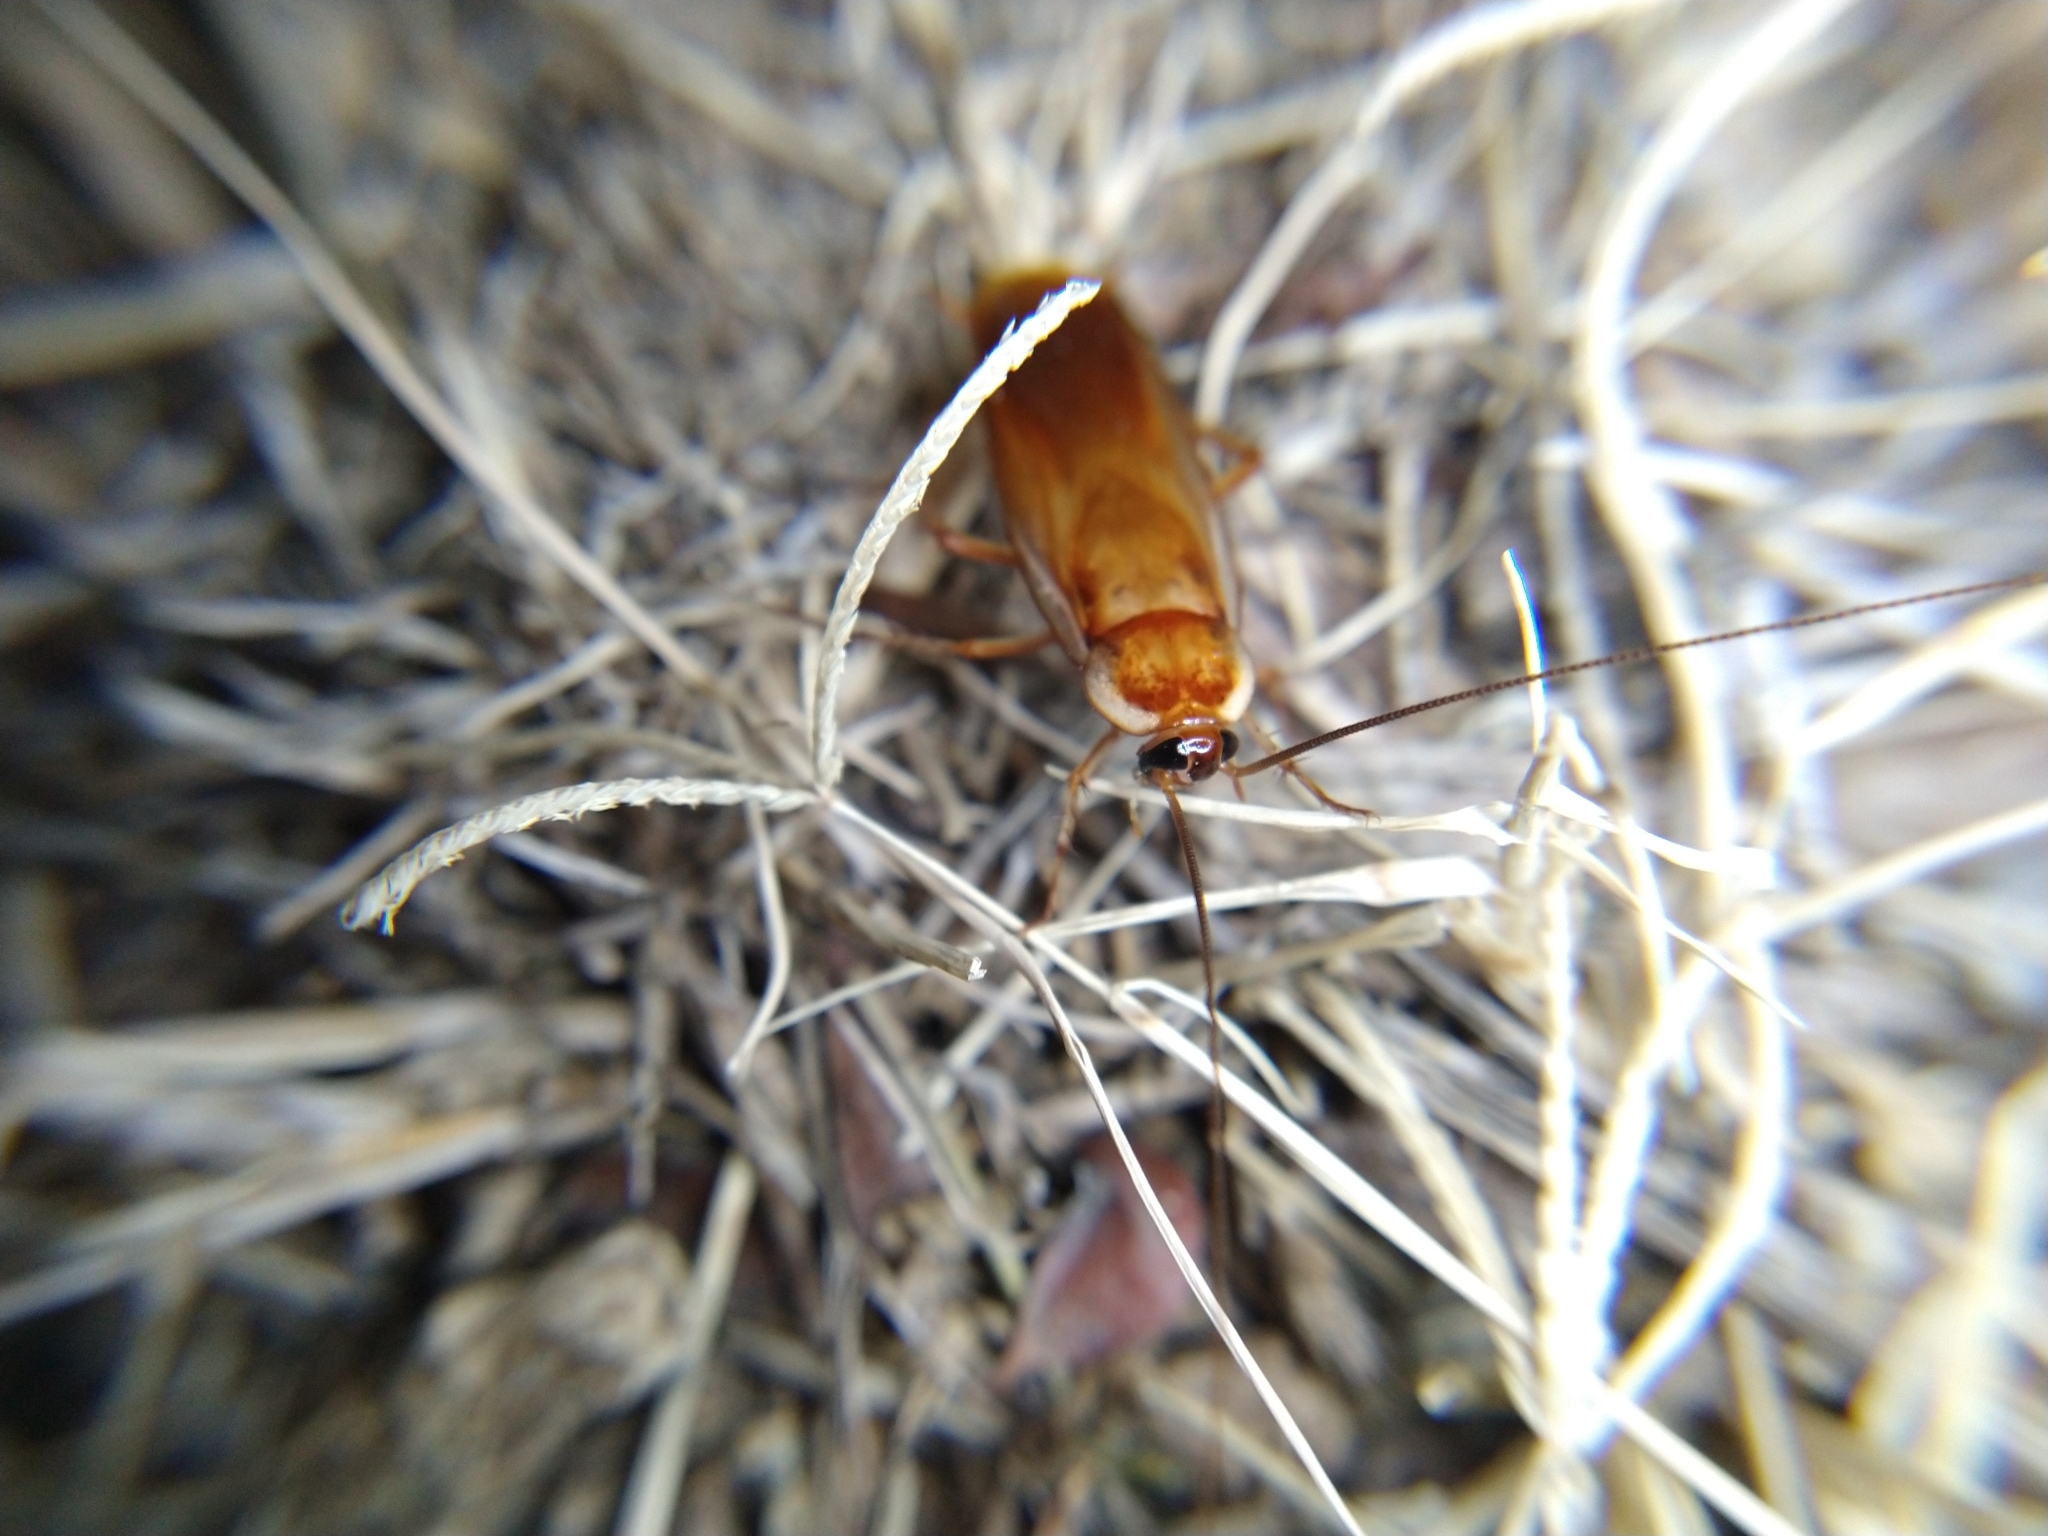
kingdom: Animalia
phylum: Arthropoda
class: Insecta
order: Blattodea
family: Blattidae
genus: Periplaneta
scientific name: Periplaneta lateralis
